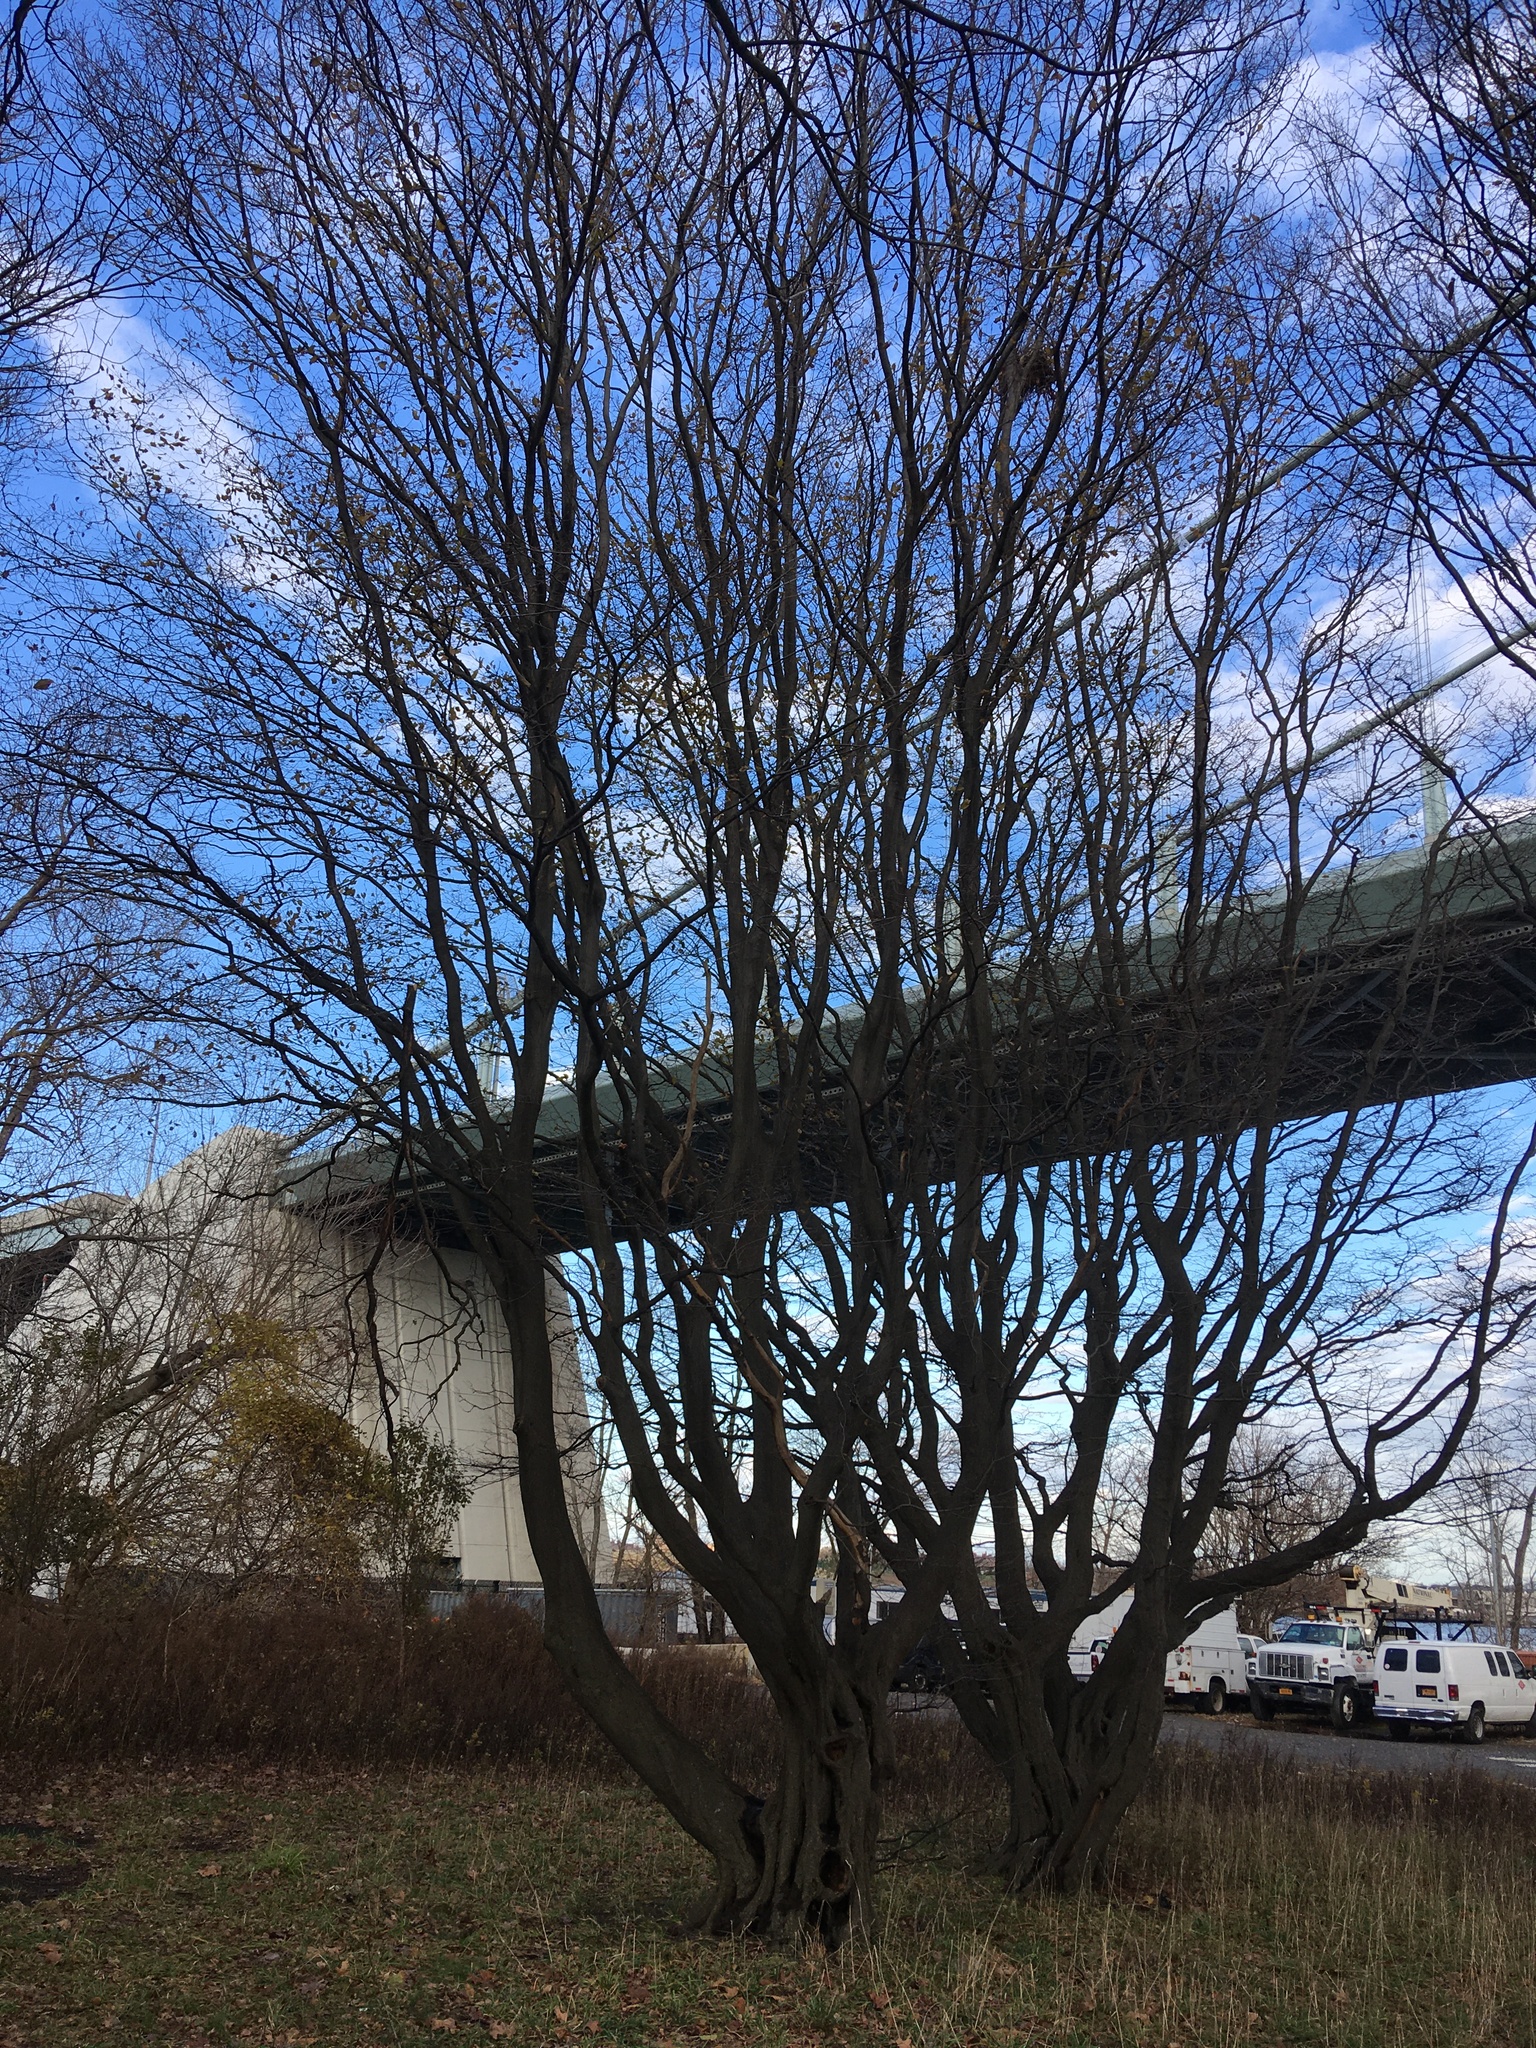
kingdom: Plantae
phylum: Tracheophyta
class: Magnoliopsida
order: Fagales
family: Betulaceae
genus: Carpinus
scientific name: Carpinus betulus
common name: Hornbeam
